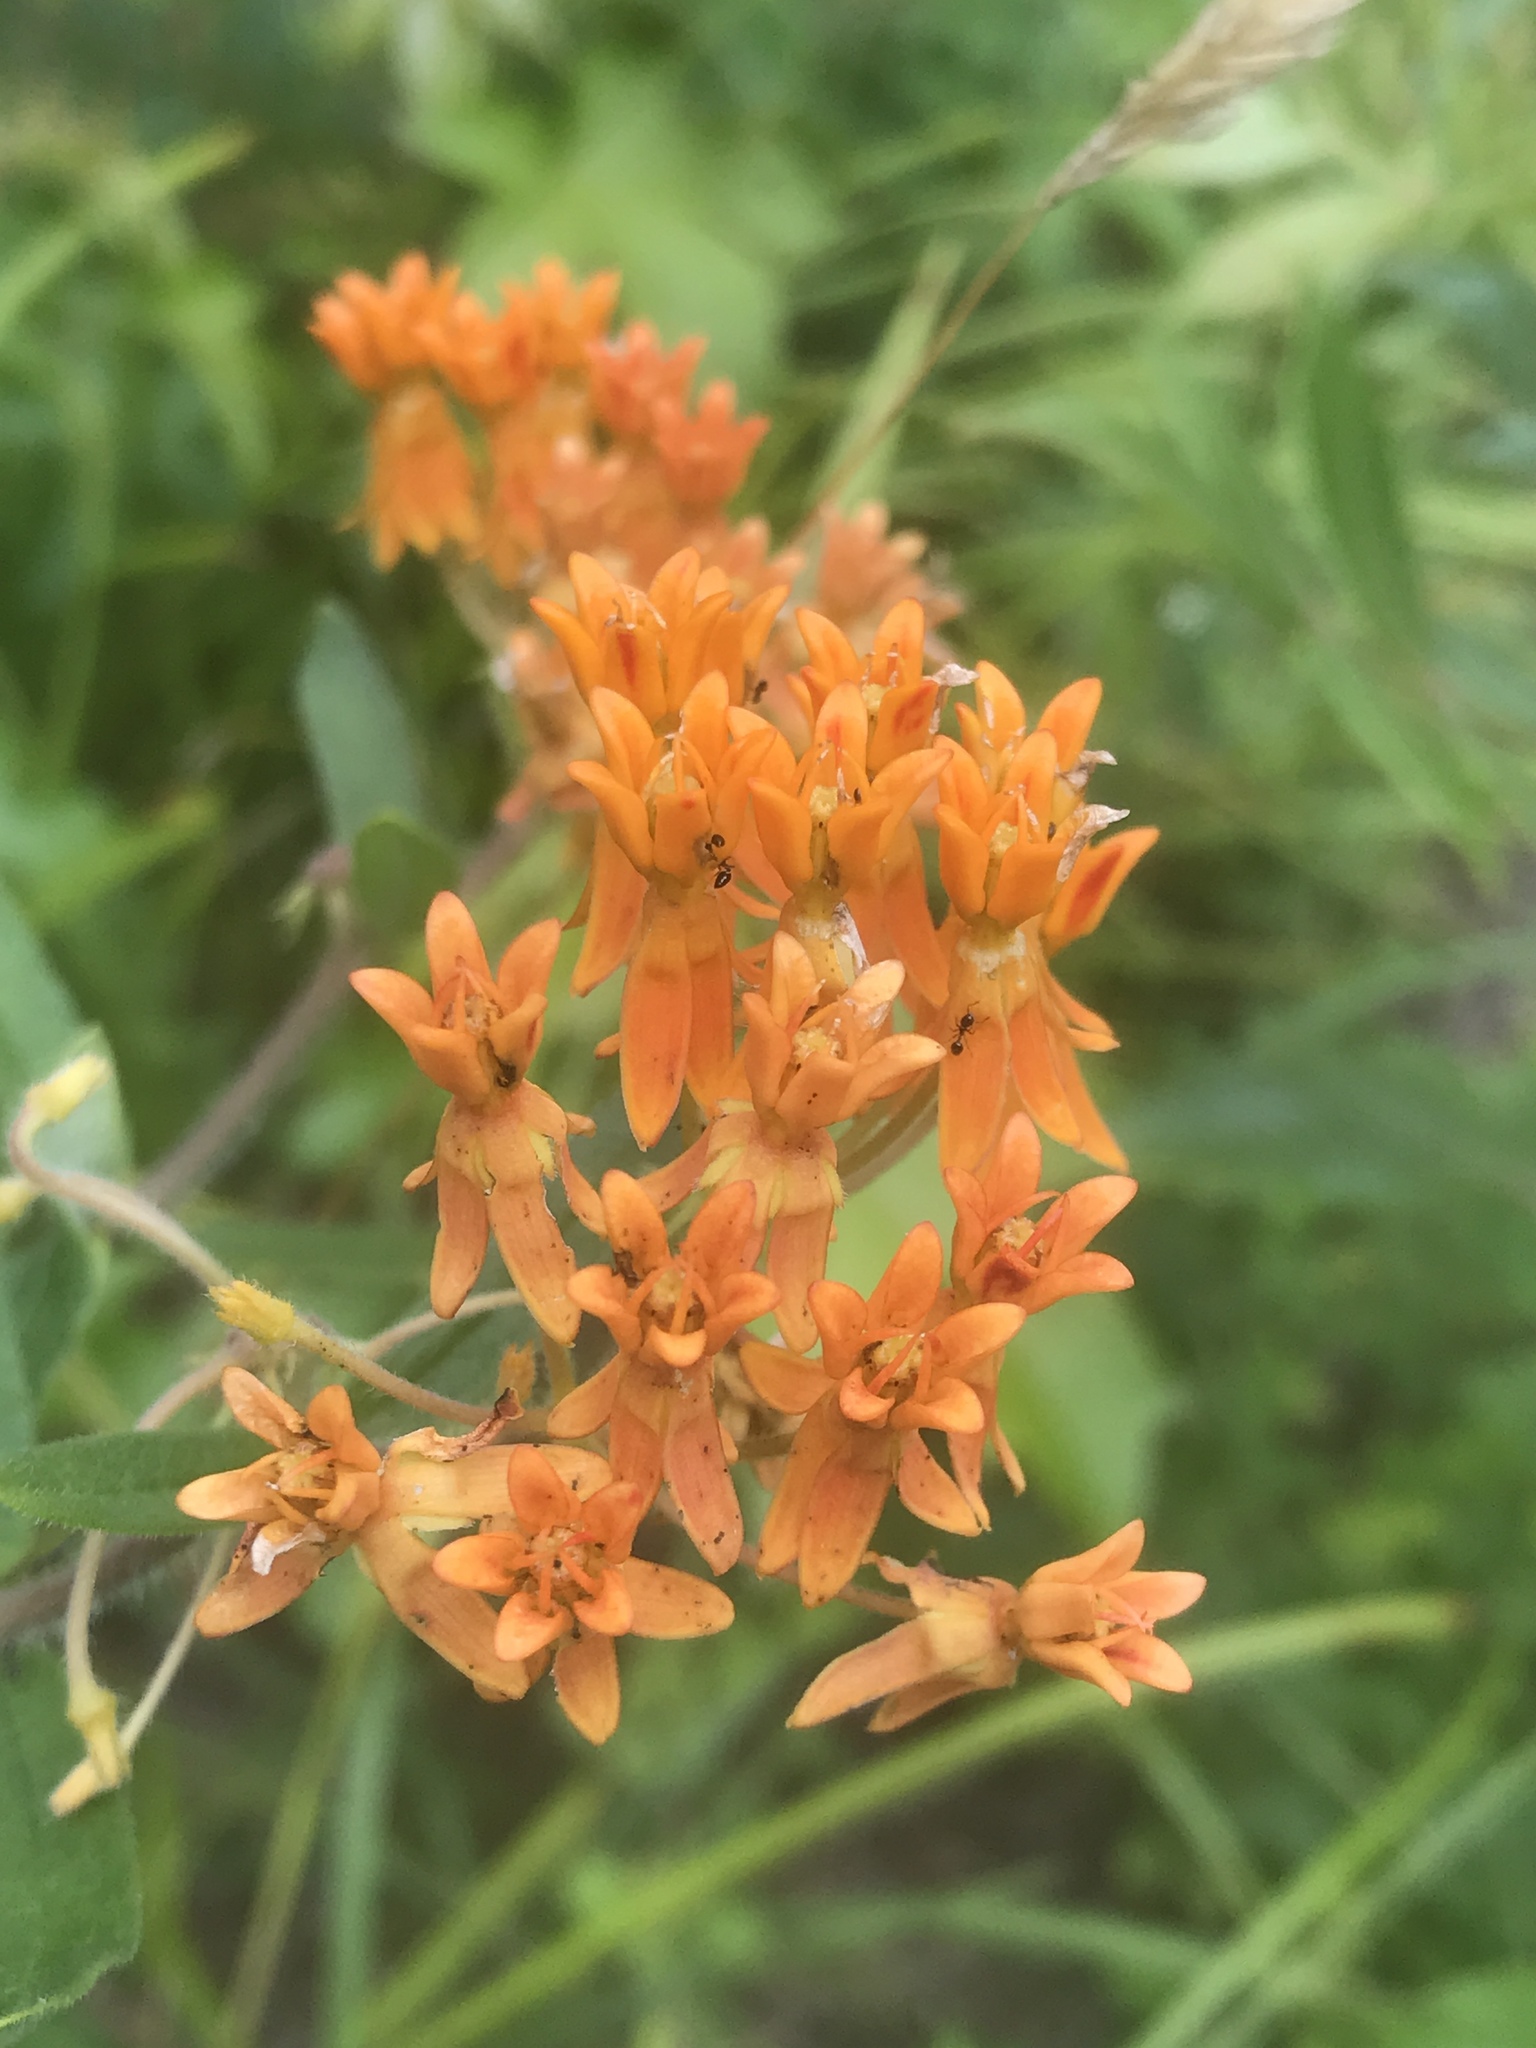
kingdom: Plantae
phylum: Tracheophyta
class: Magnoliopsida
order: Gentianales
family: Apocynaceae
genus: Asclepias
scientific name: Asclepias tuberosa
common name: Butterfly milkweed
